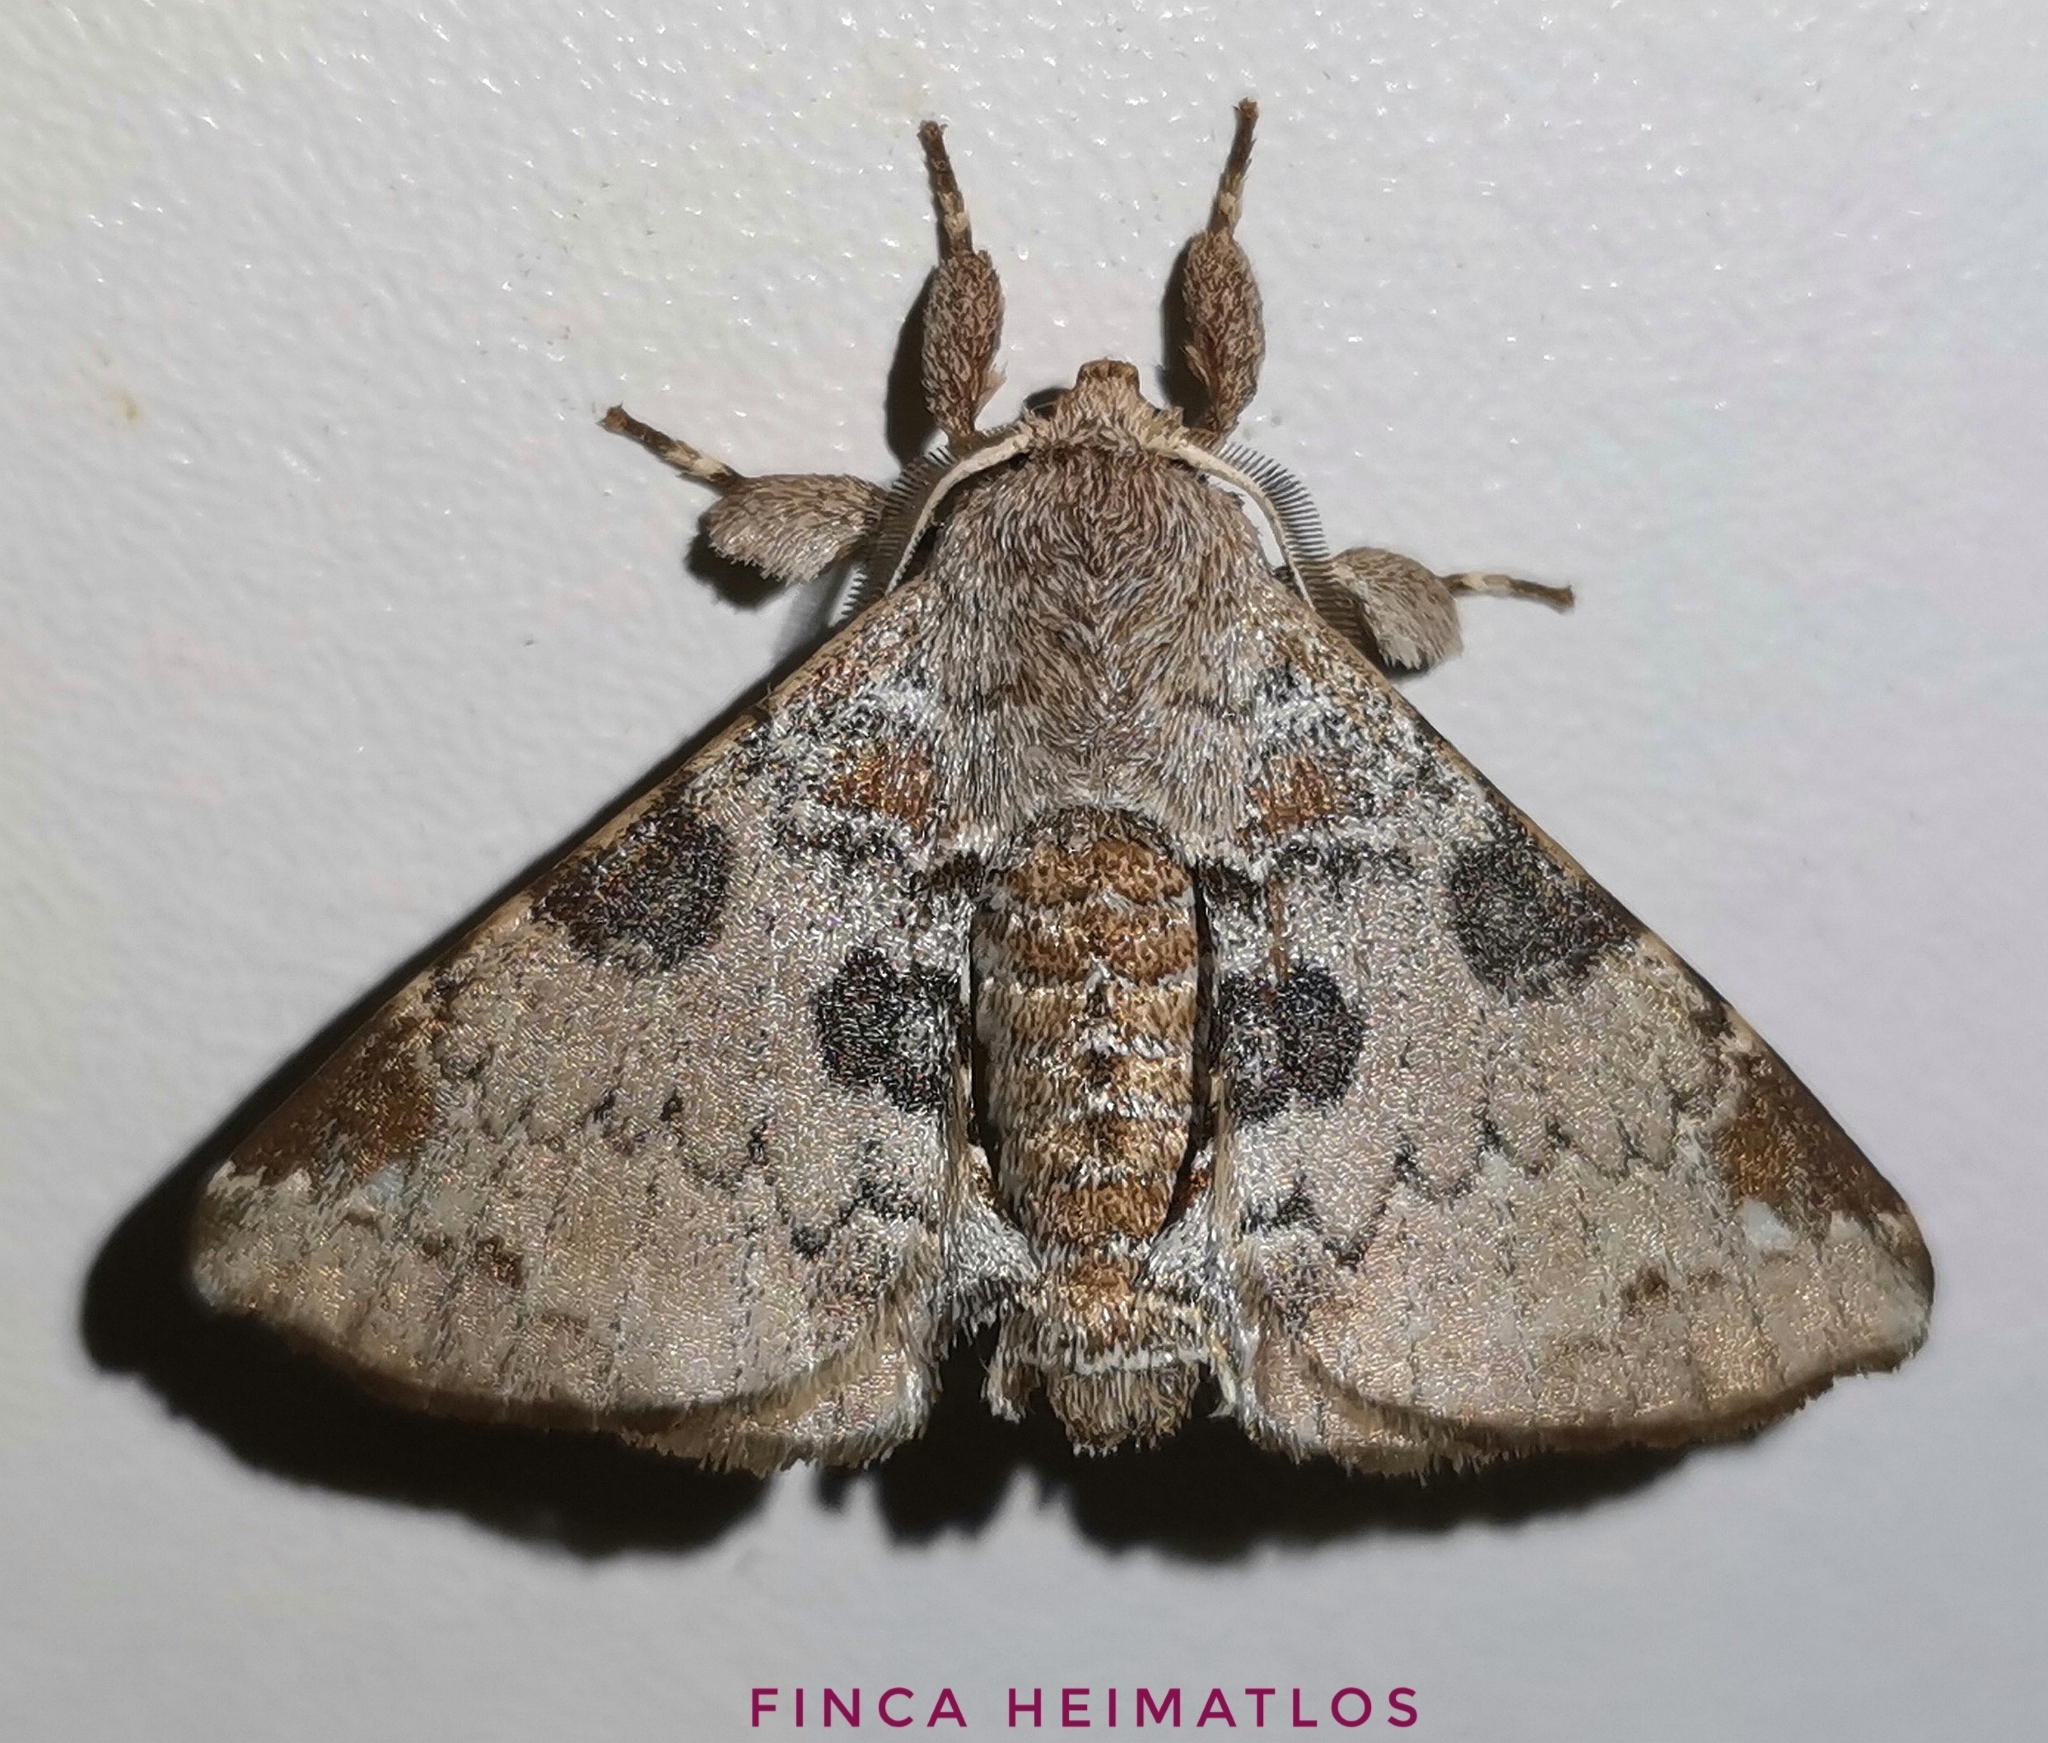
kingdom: Animalia
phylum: Arthropoda
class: Insecta
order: Lepidoptera
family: Apatelodidae
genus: Hygrochroa
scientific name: Hygrochroa nina
